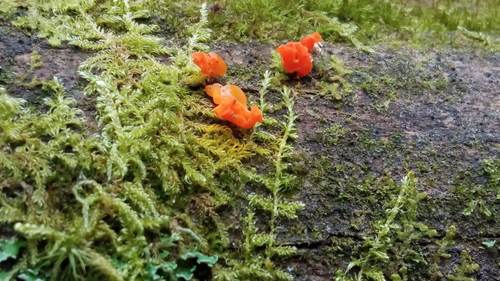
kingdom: Fungi
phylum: Basidiomycota
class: Dacrymycetes
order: Dacrymycetales
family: Dacrymycetaceae
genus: Dacrymyces
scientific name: Dacrymyces
